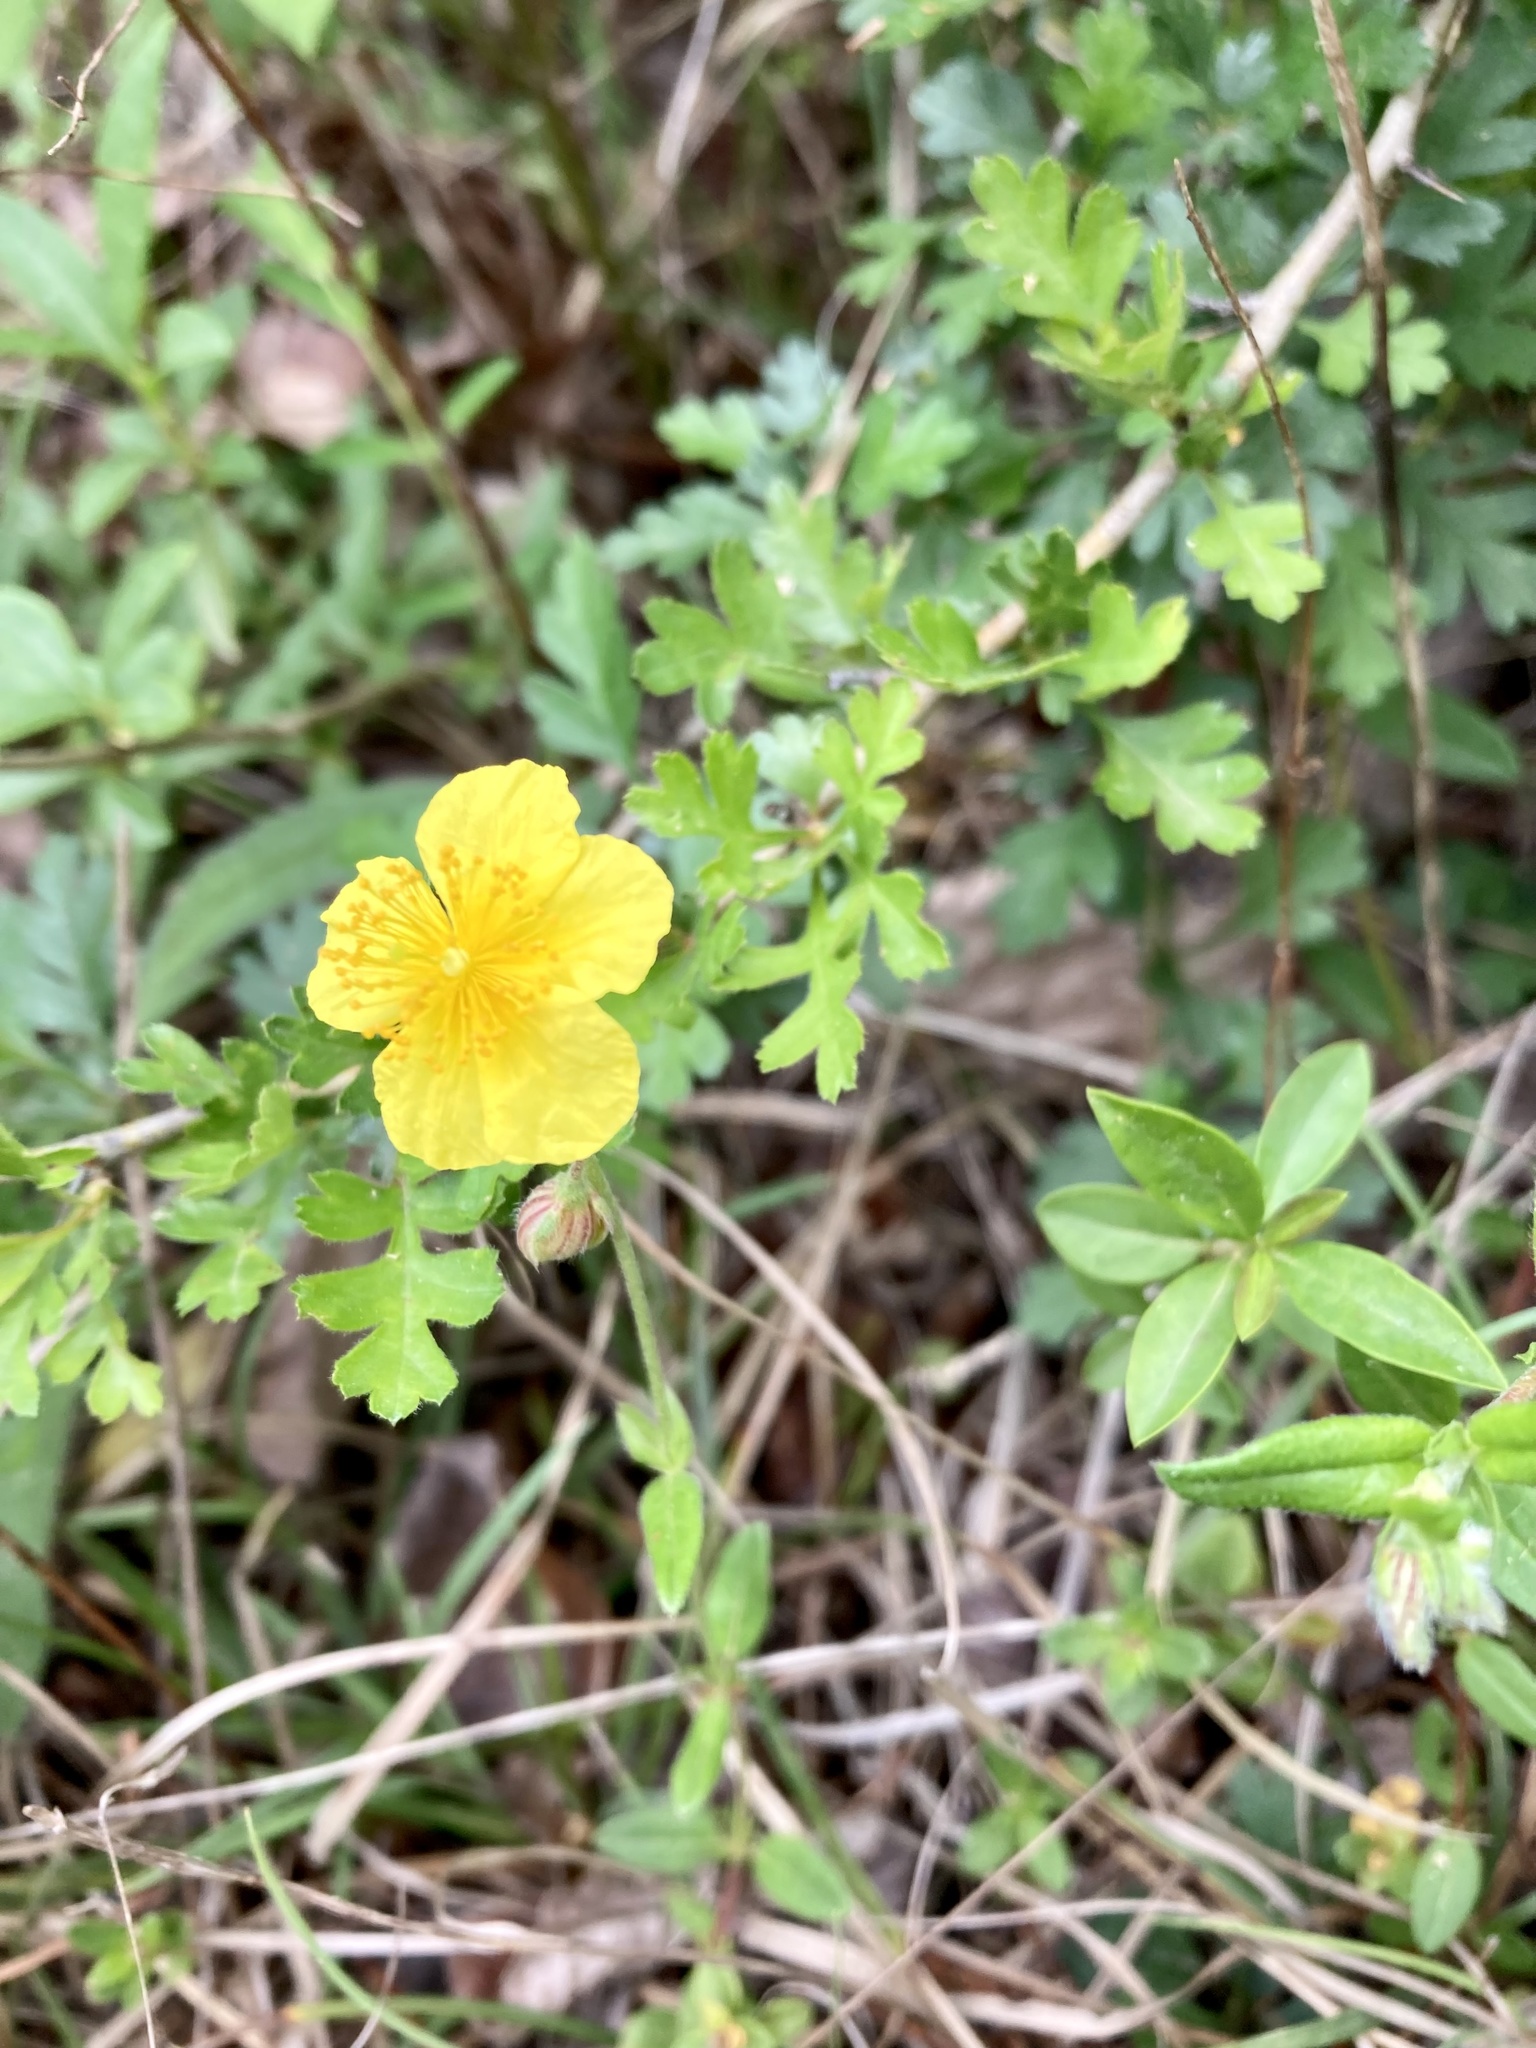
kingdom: Plantae
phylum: Tracheophyta
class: Magnoliopsida
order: Malvales
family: Cistaceae
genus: Helianthemum
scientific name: Helianthemum nummularium
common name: Common rock-rose
